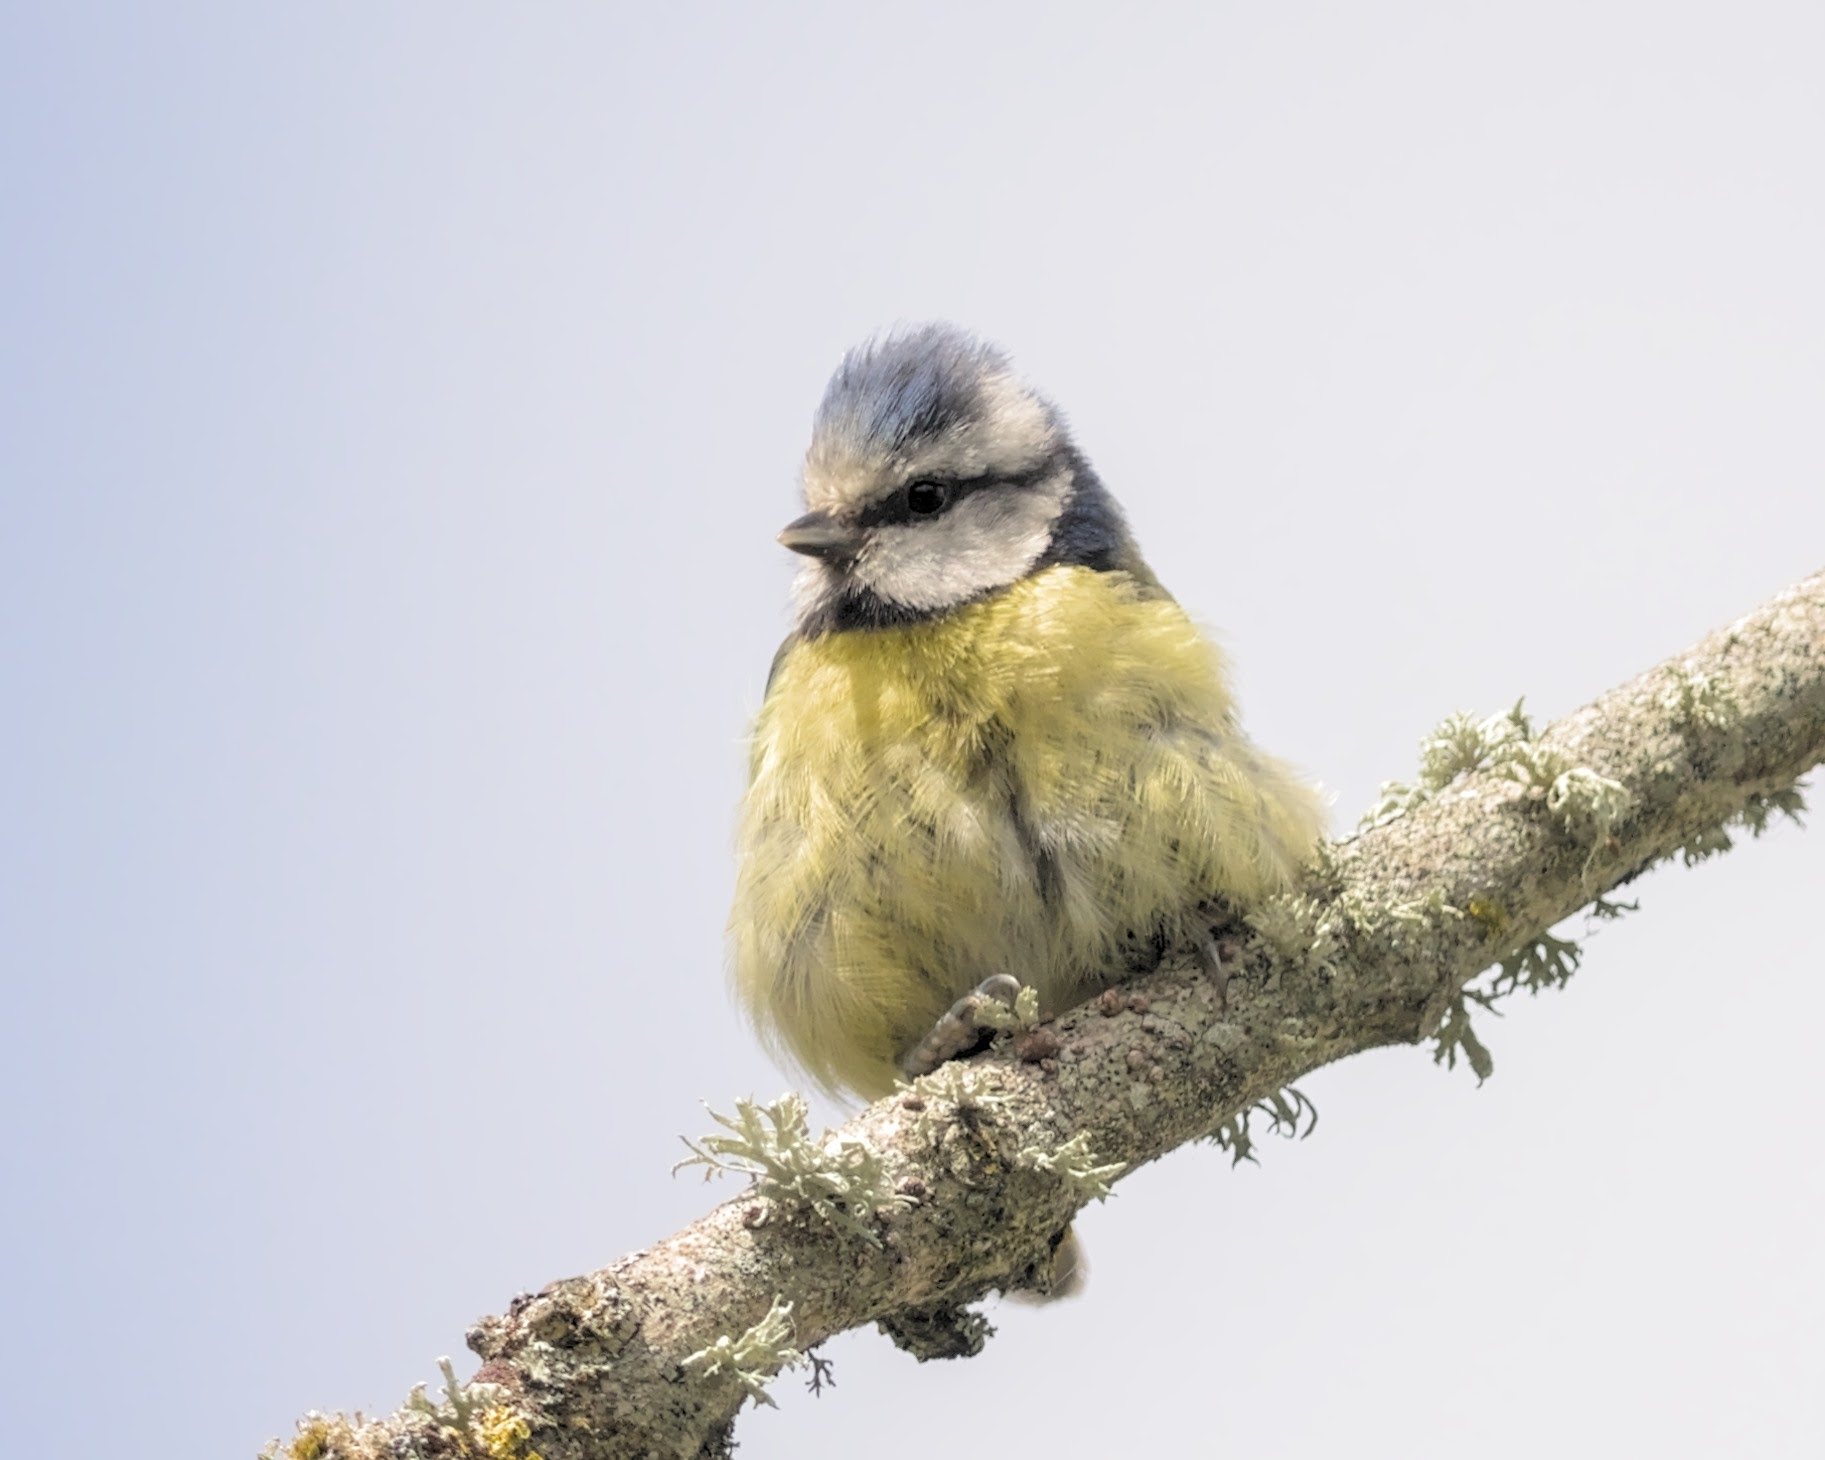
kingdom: Animalia
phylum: Chordata
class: Aves
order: Passeriformes
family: Paridae
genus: Cyanistes
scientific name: Cyanistes caeruleus
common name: Eurasian blue tit
